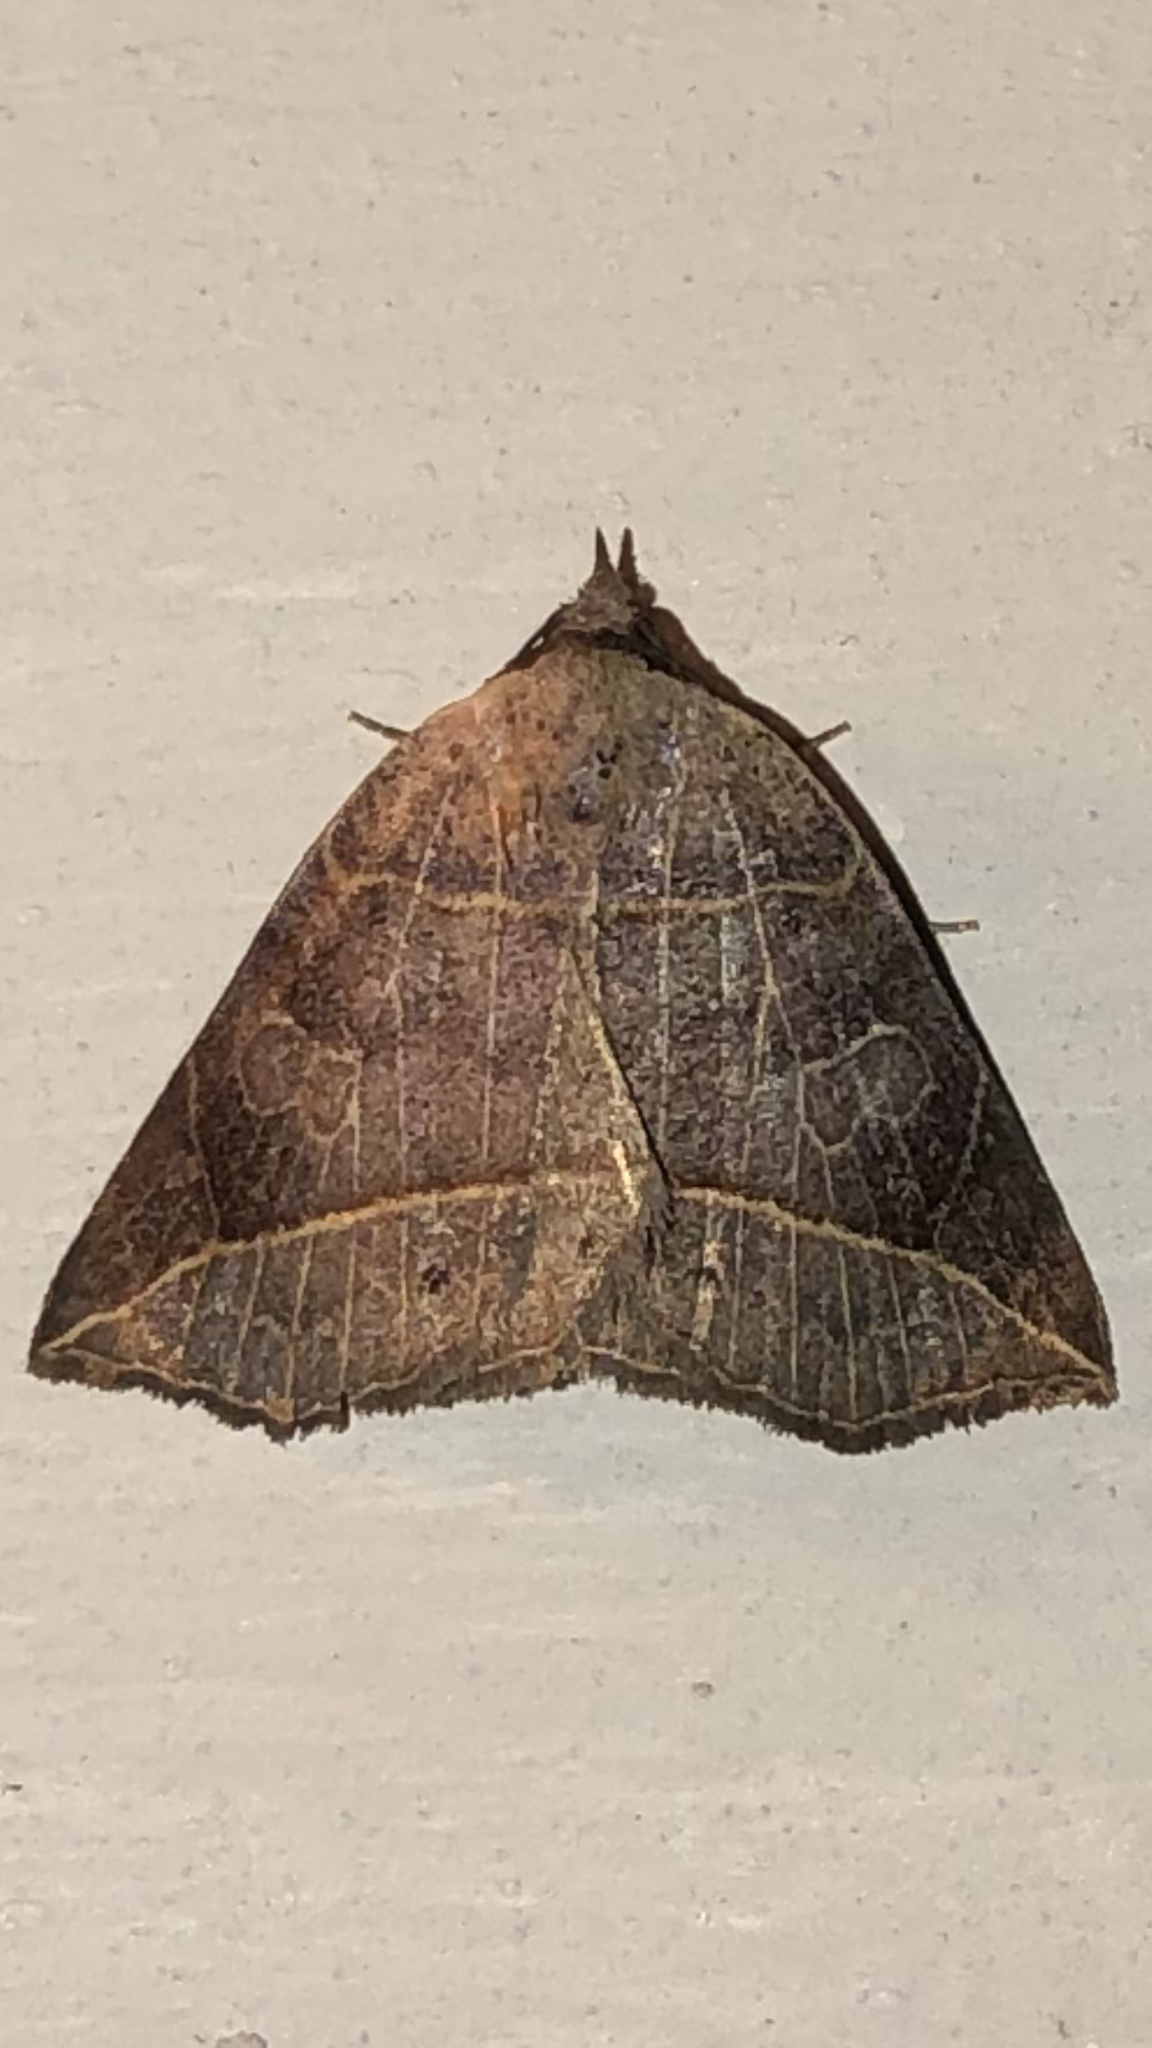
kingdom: Animalia
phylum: Arthropoda
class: Insecta
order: Lepidoptera
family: Erebidae
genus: Isogona
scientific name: Isogona tenuis
